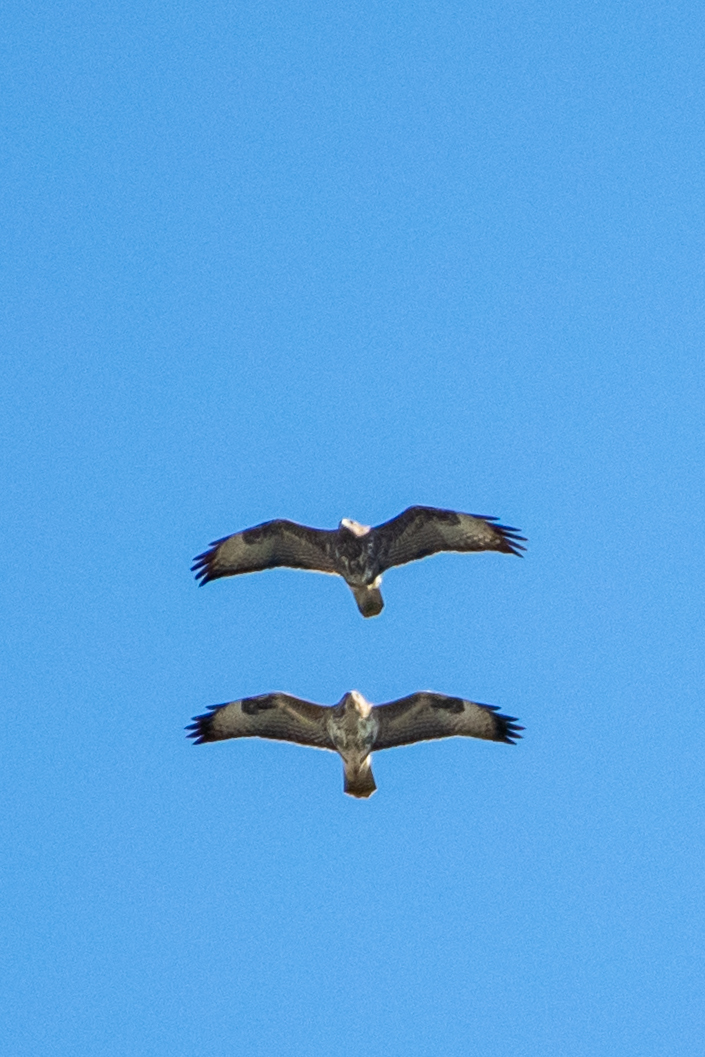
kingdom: Animalia
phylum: Chordata
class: Aves
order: Accipitriformes
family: Accipitridae
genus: Buteo
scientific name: Buteo buteo
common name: Common buzzard
